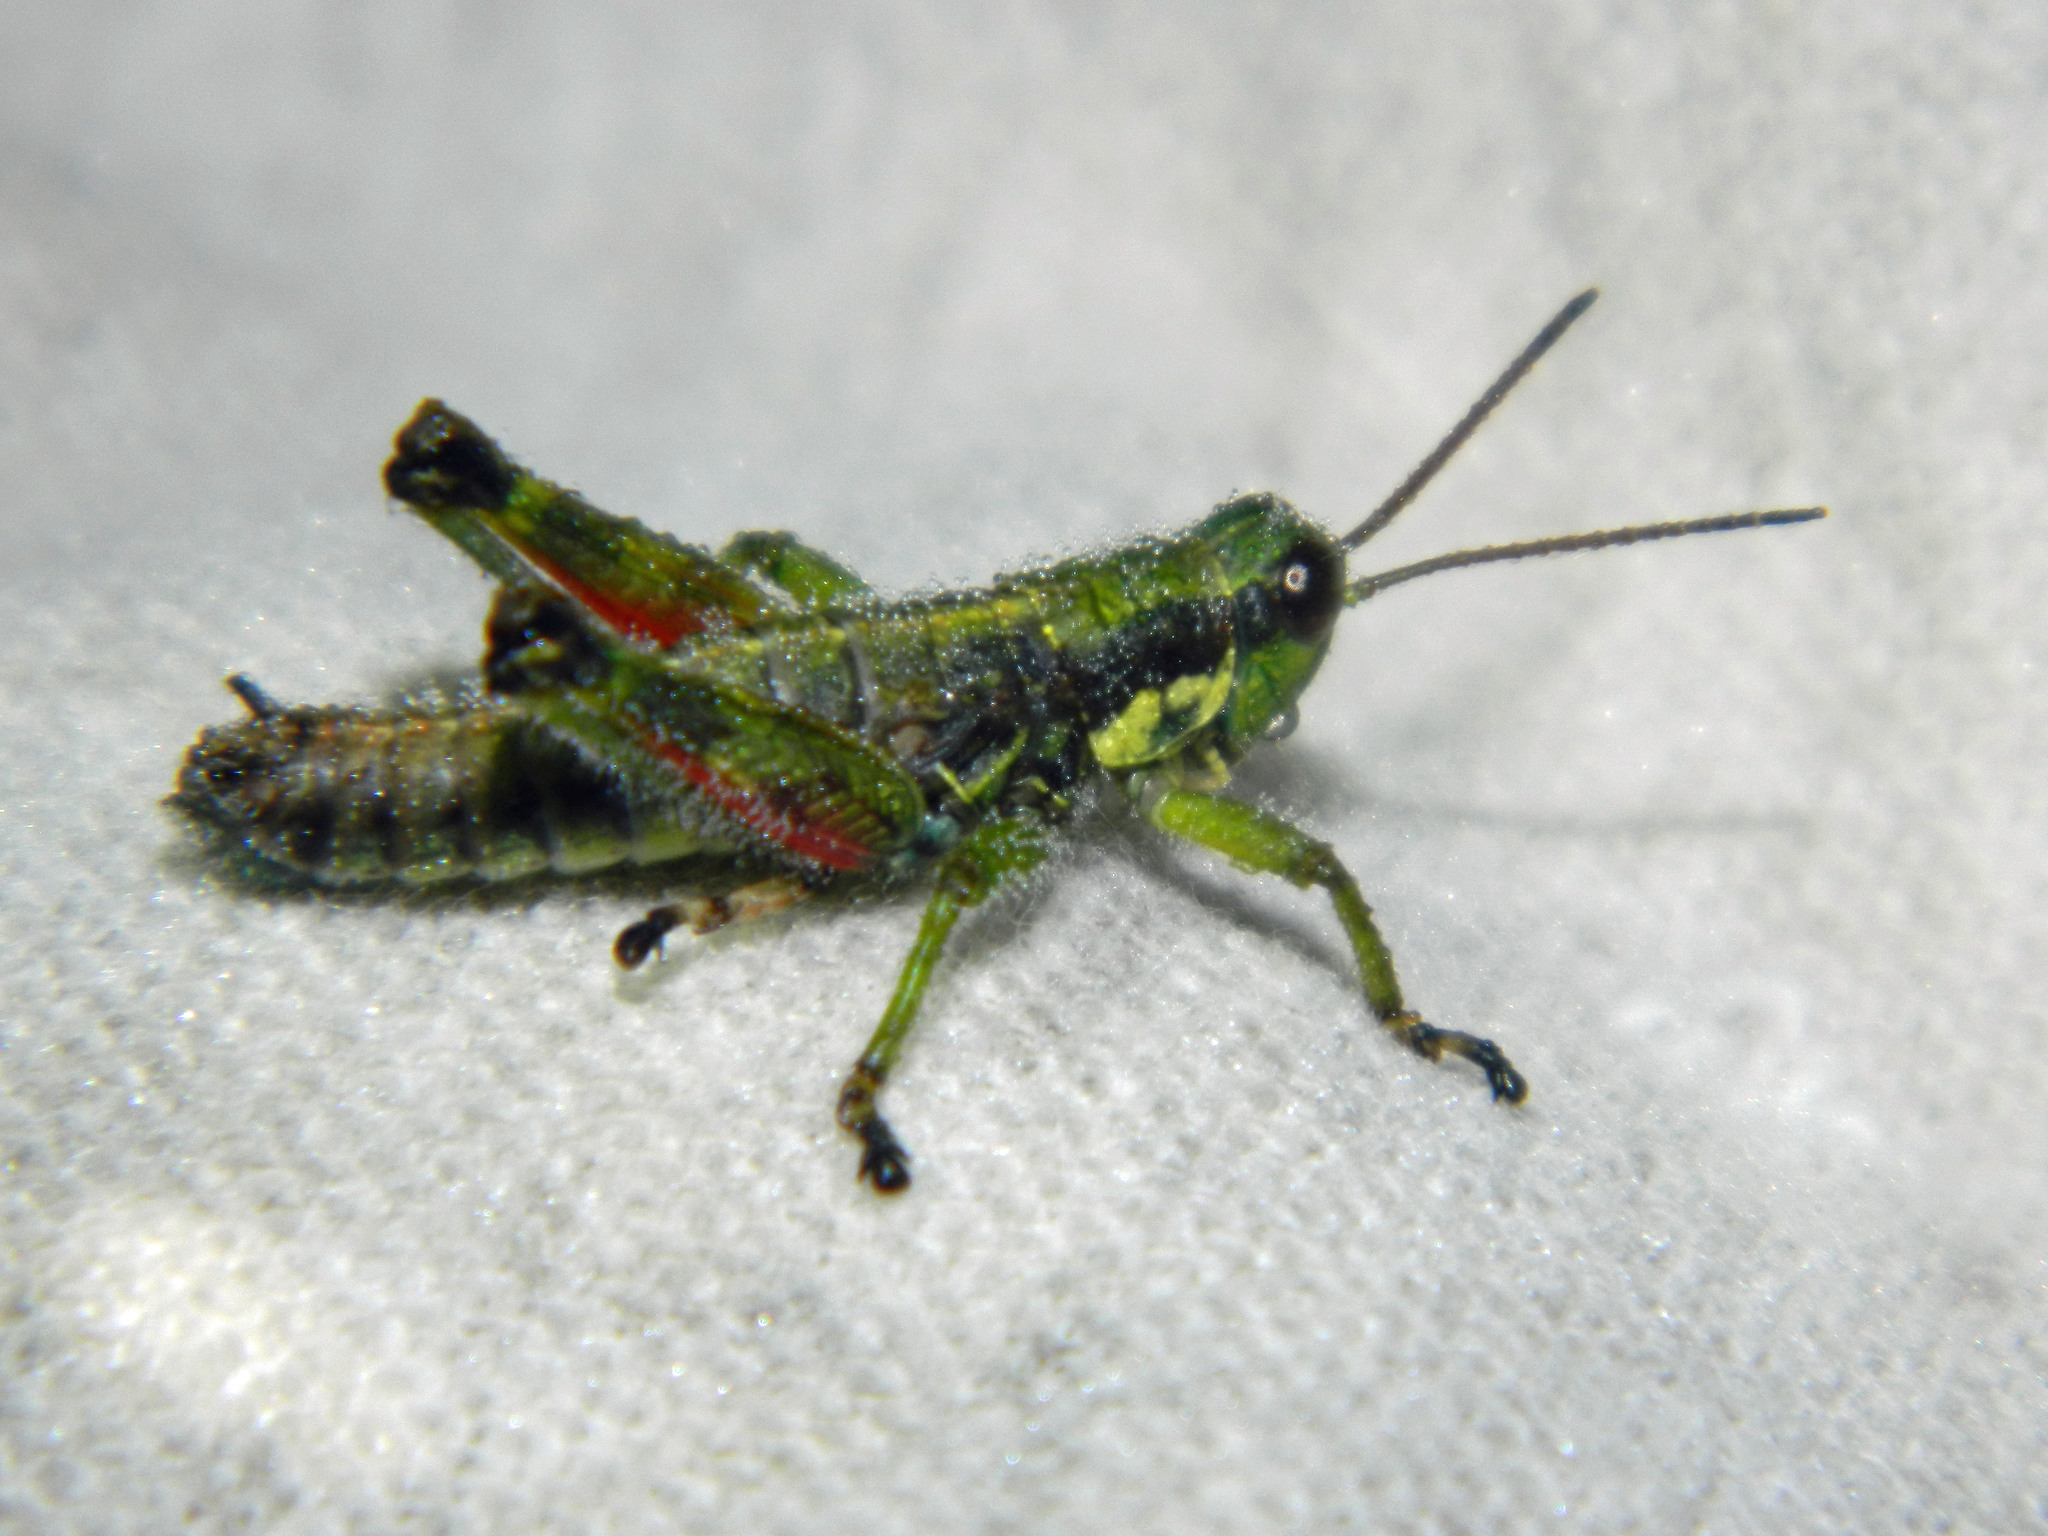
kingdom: Animalia
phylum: Arthropoda
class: Insecta
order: Orthoptera
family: Acrididae
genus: Booneacris
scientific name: Booneacris glacialis
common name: Wingless mountain grasshopper
